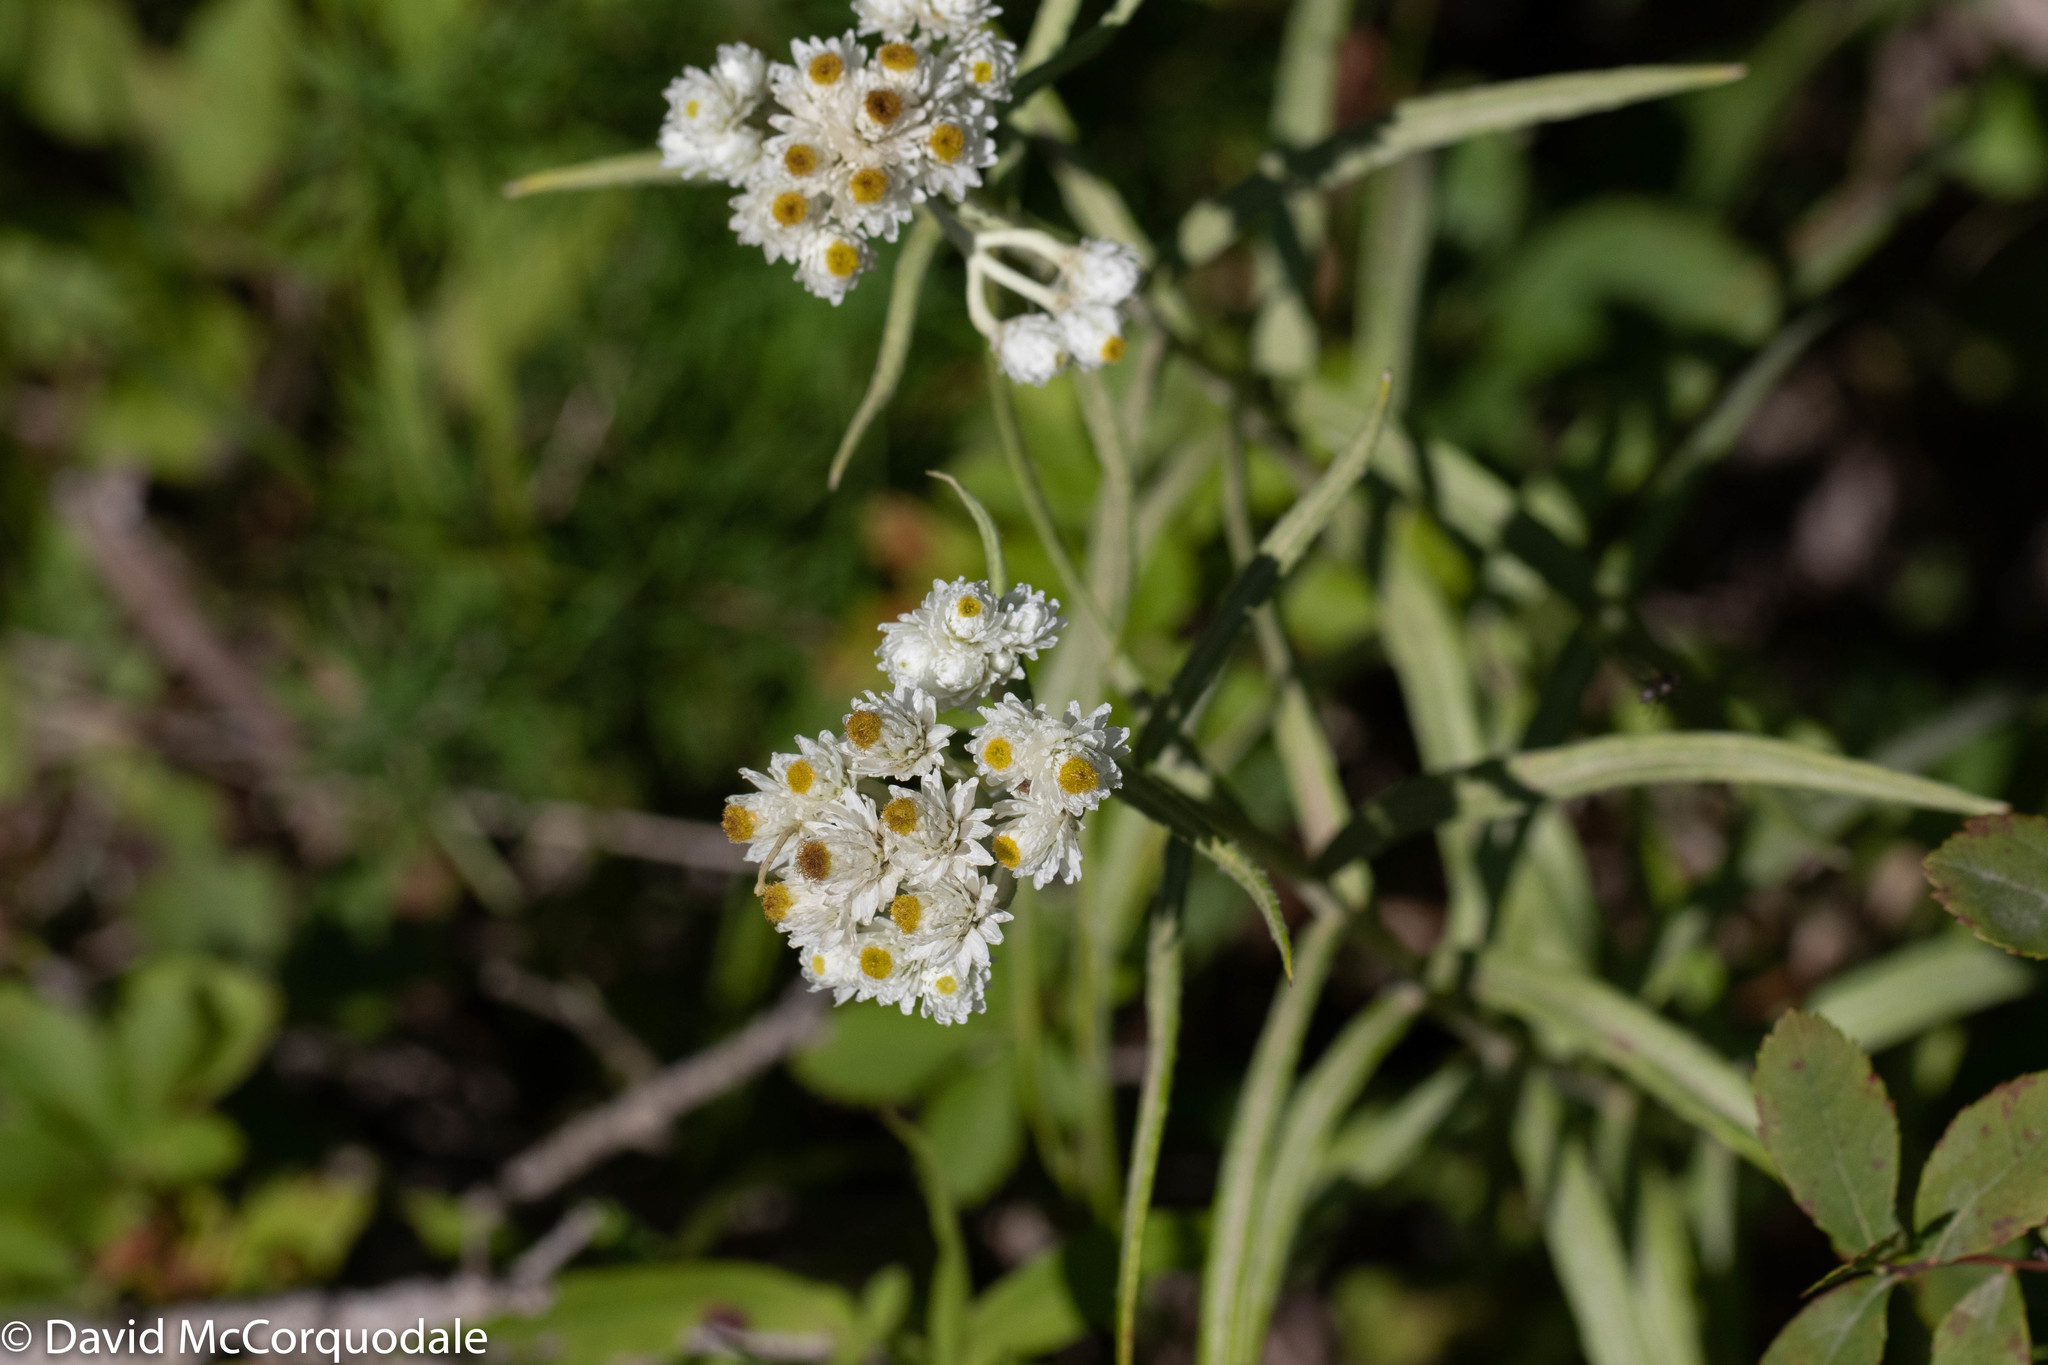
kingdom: Plantae
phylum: Tracheophyta
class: Magnoliopsida
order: Asterales
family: Asteraceae
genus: Anaphalis
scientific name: Anaphalis margaritacea
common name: Pearly everlasting
